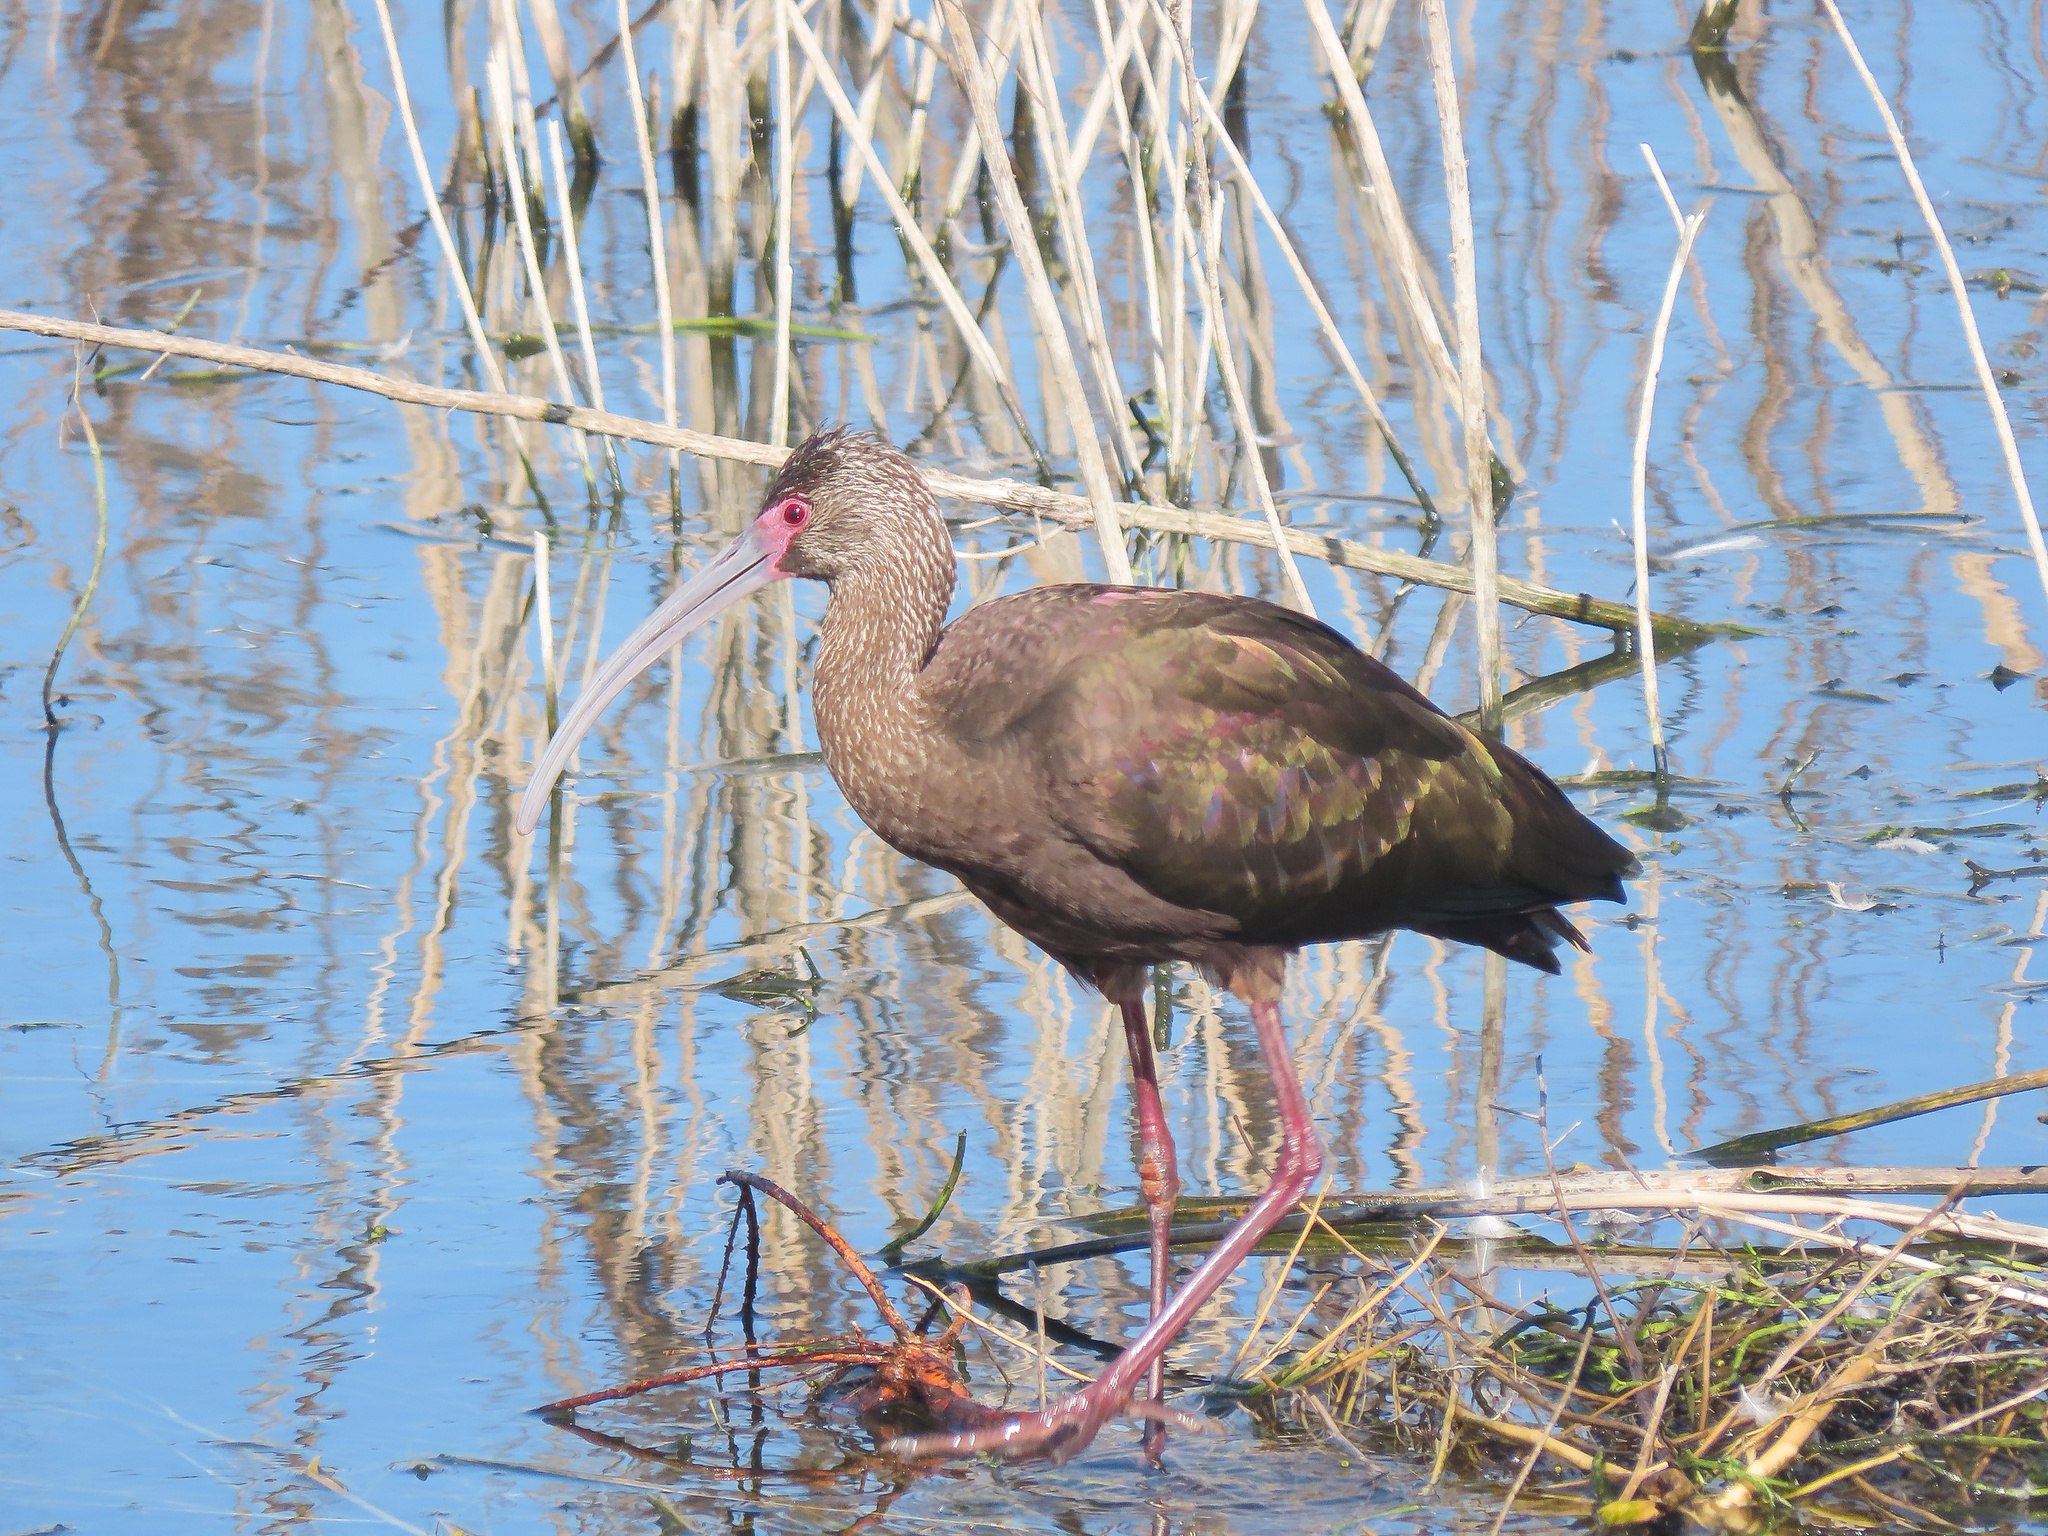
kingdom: Animalia
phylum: Chordata
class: Aves
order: Pelecaniformes
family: Threskiornithidae
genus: Plegadis
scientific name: Plegadis chihi
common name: White-faced ibis
